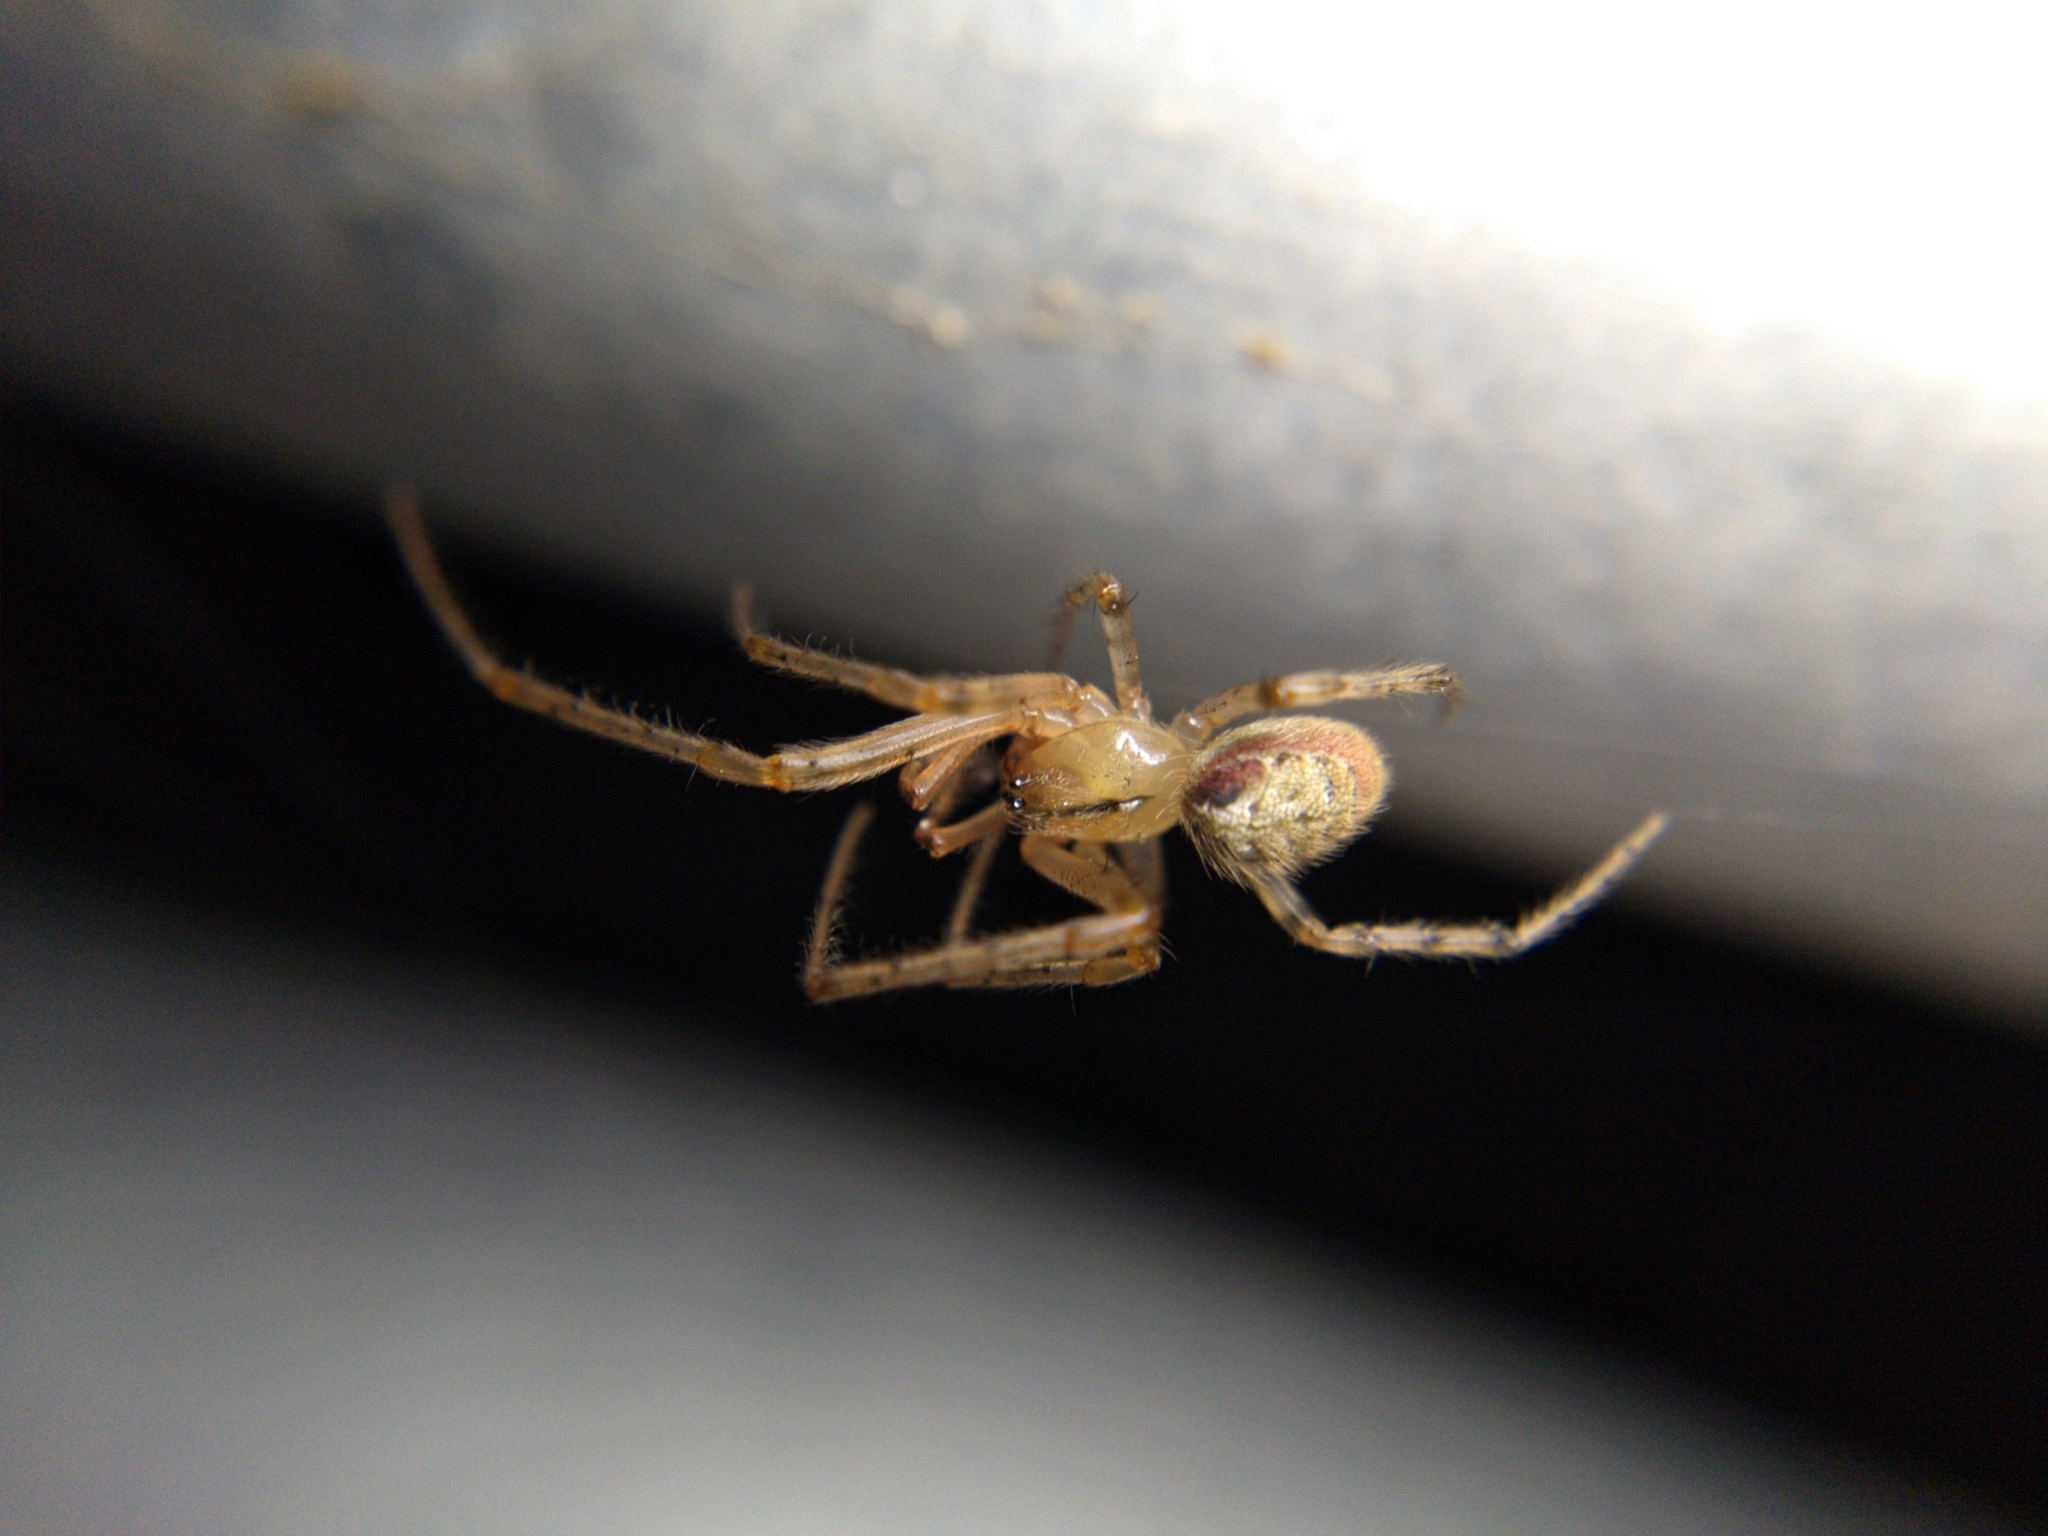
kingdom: Animalia
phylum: Arthropoda
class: Arachnida
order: Araneae
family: Araneidae
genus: Zygiella
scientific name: Zygiella atrica
